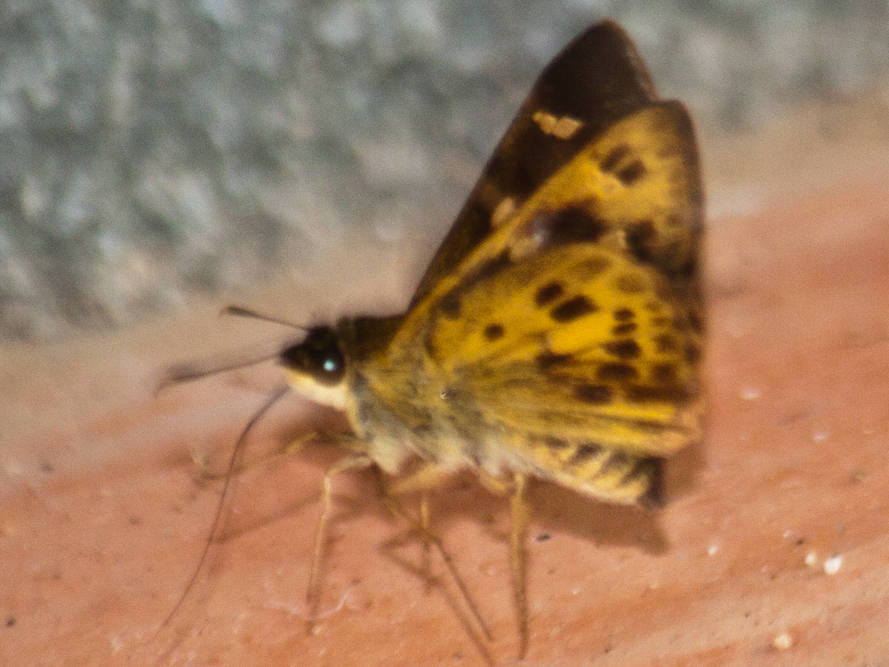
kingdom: Animalia
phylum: Arthropoda
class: Insecta
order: Lepidoptera
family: Hesperiidae
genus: Thoressa
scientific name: Thoressa masoni
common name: Golden ace
